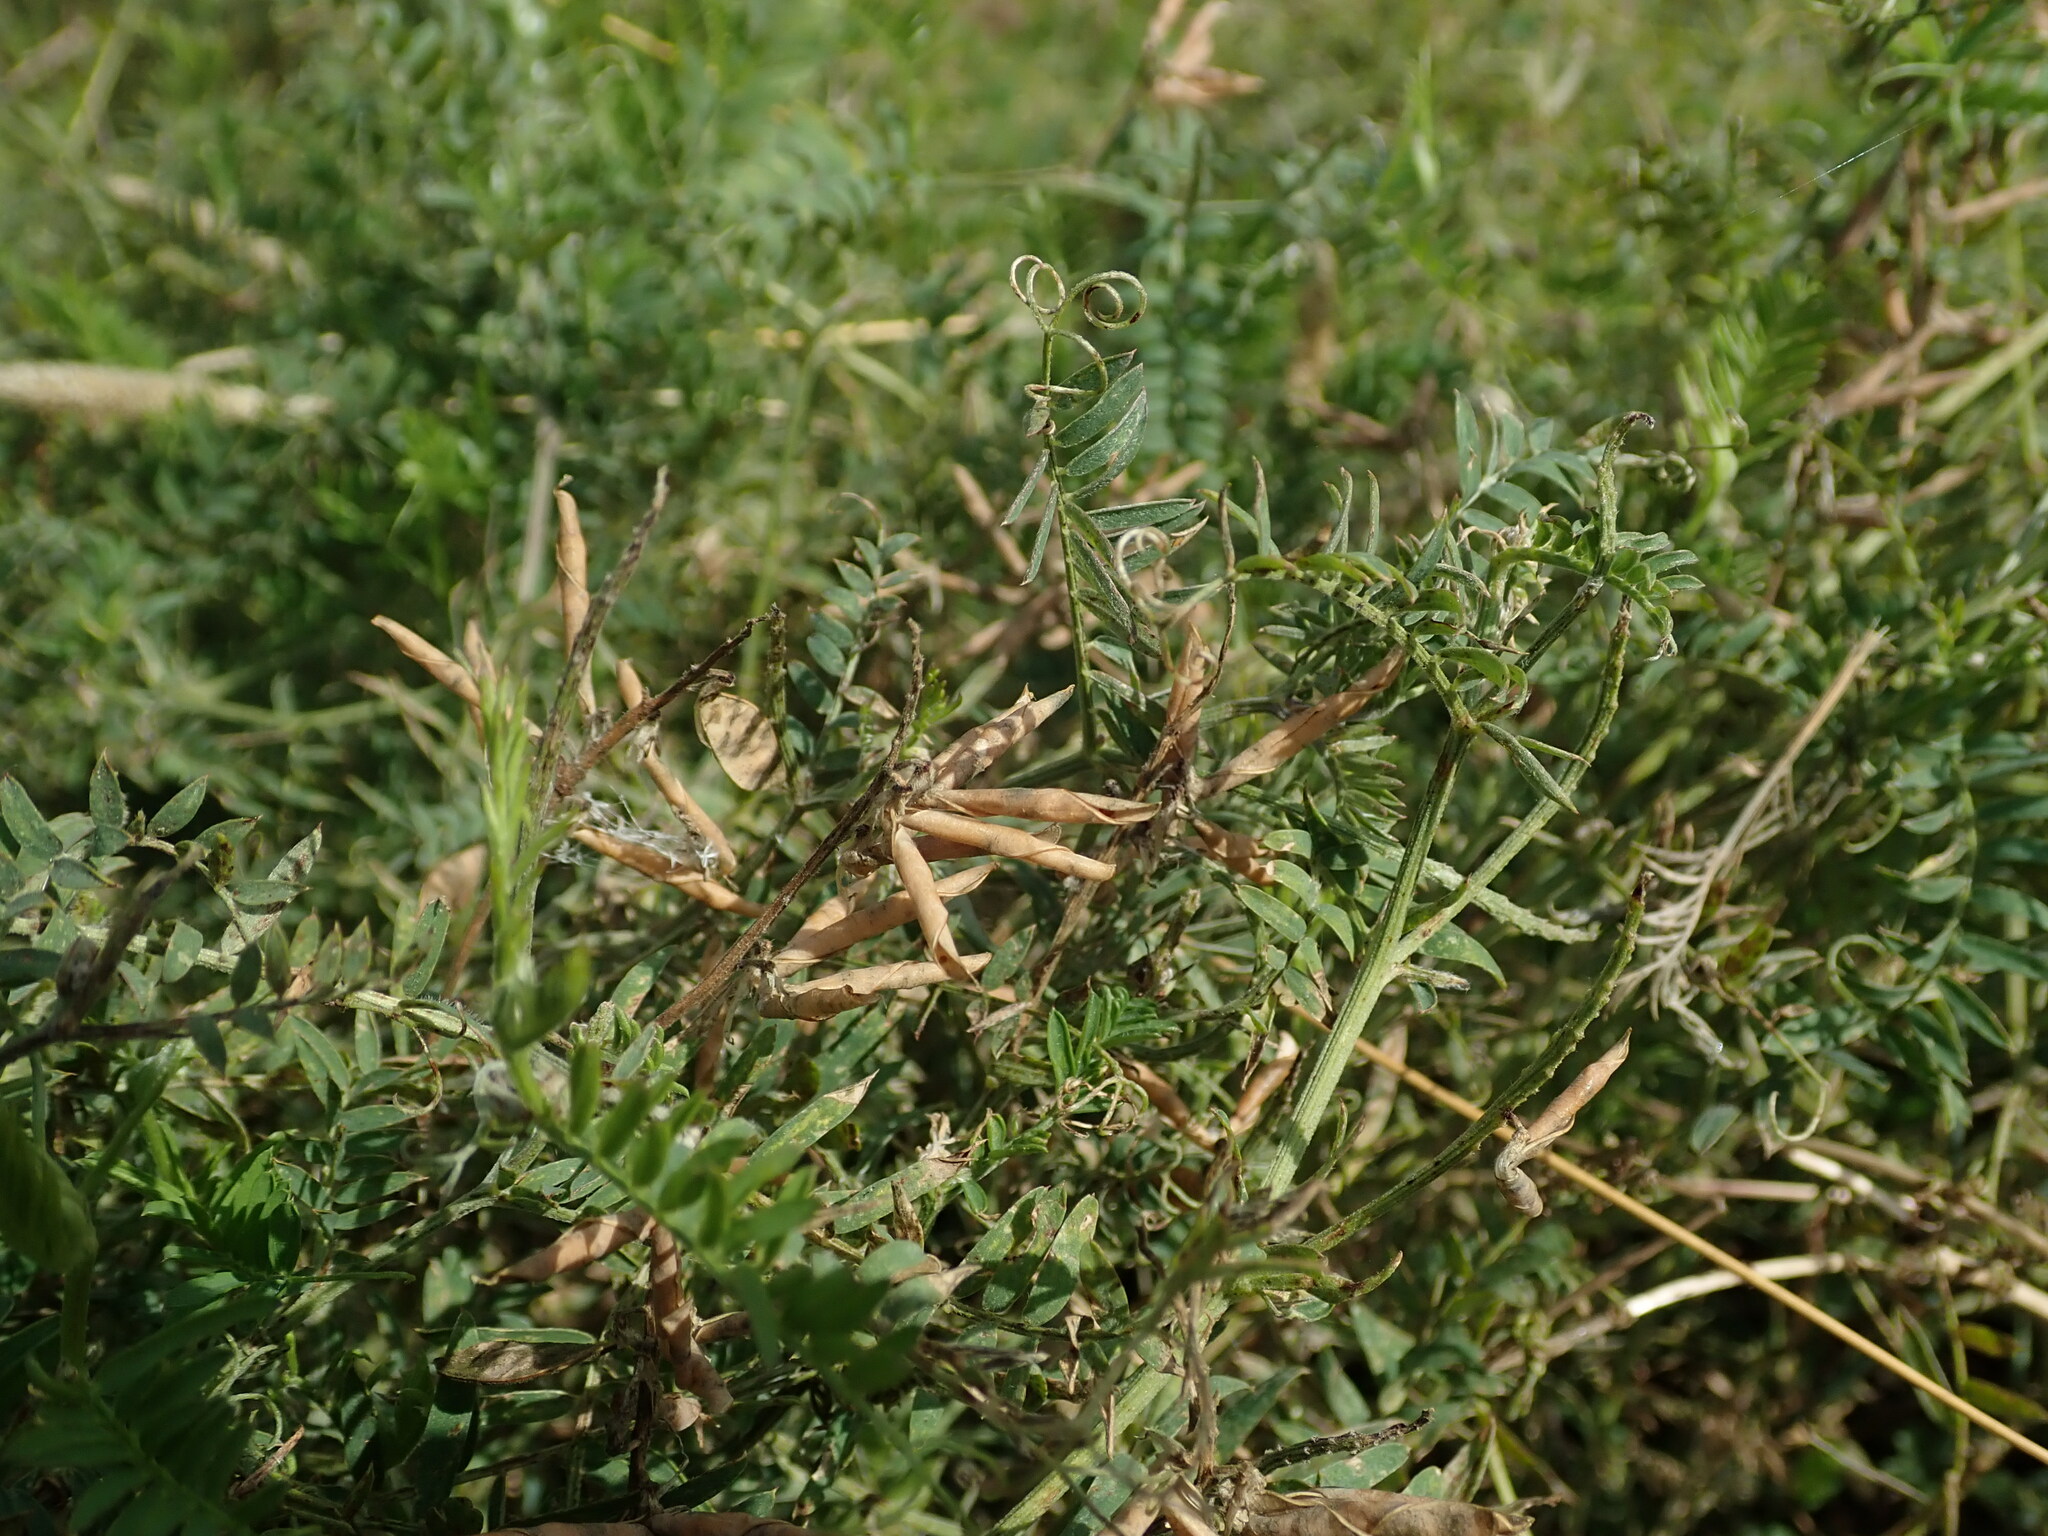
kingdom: Plantae
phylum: Tracheophyta
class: Magnoliopsida
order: Fabales
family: Fabaceae
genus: Vicia
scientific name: Vicia cracca
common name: Bird vetch
